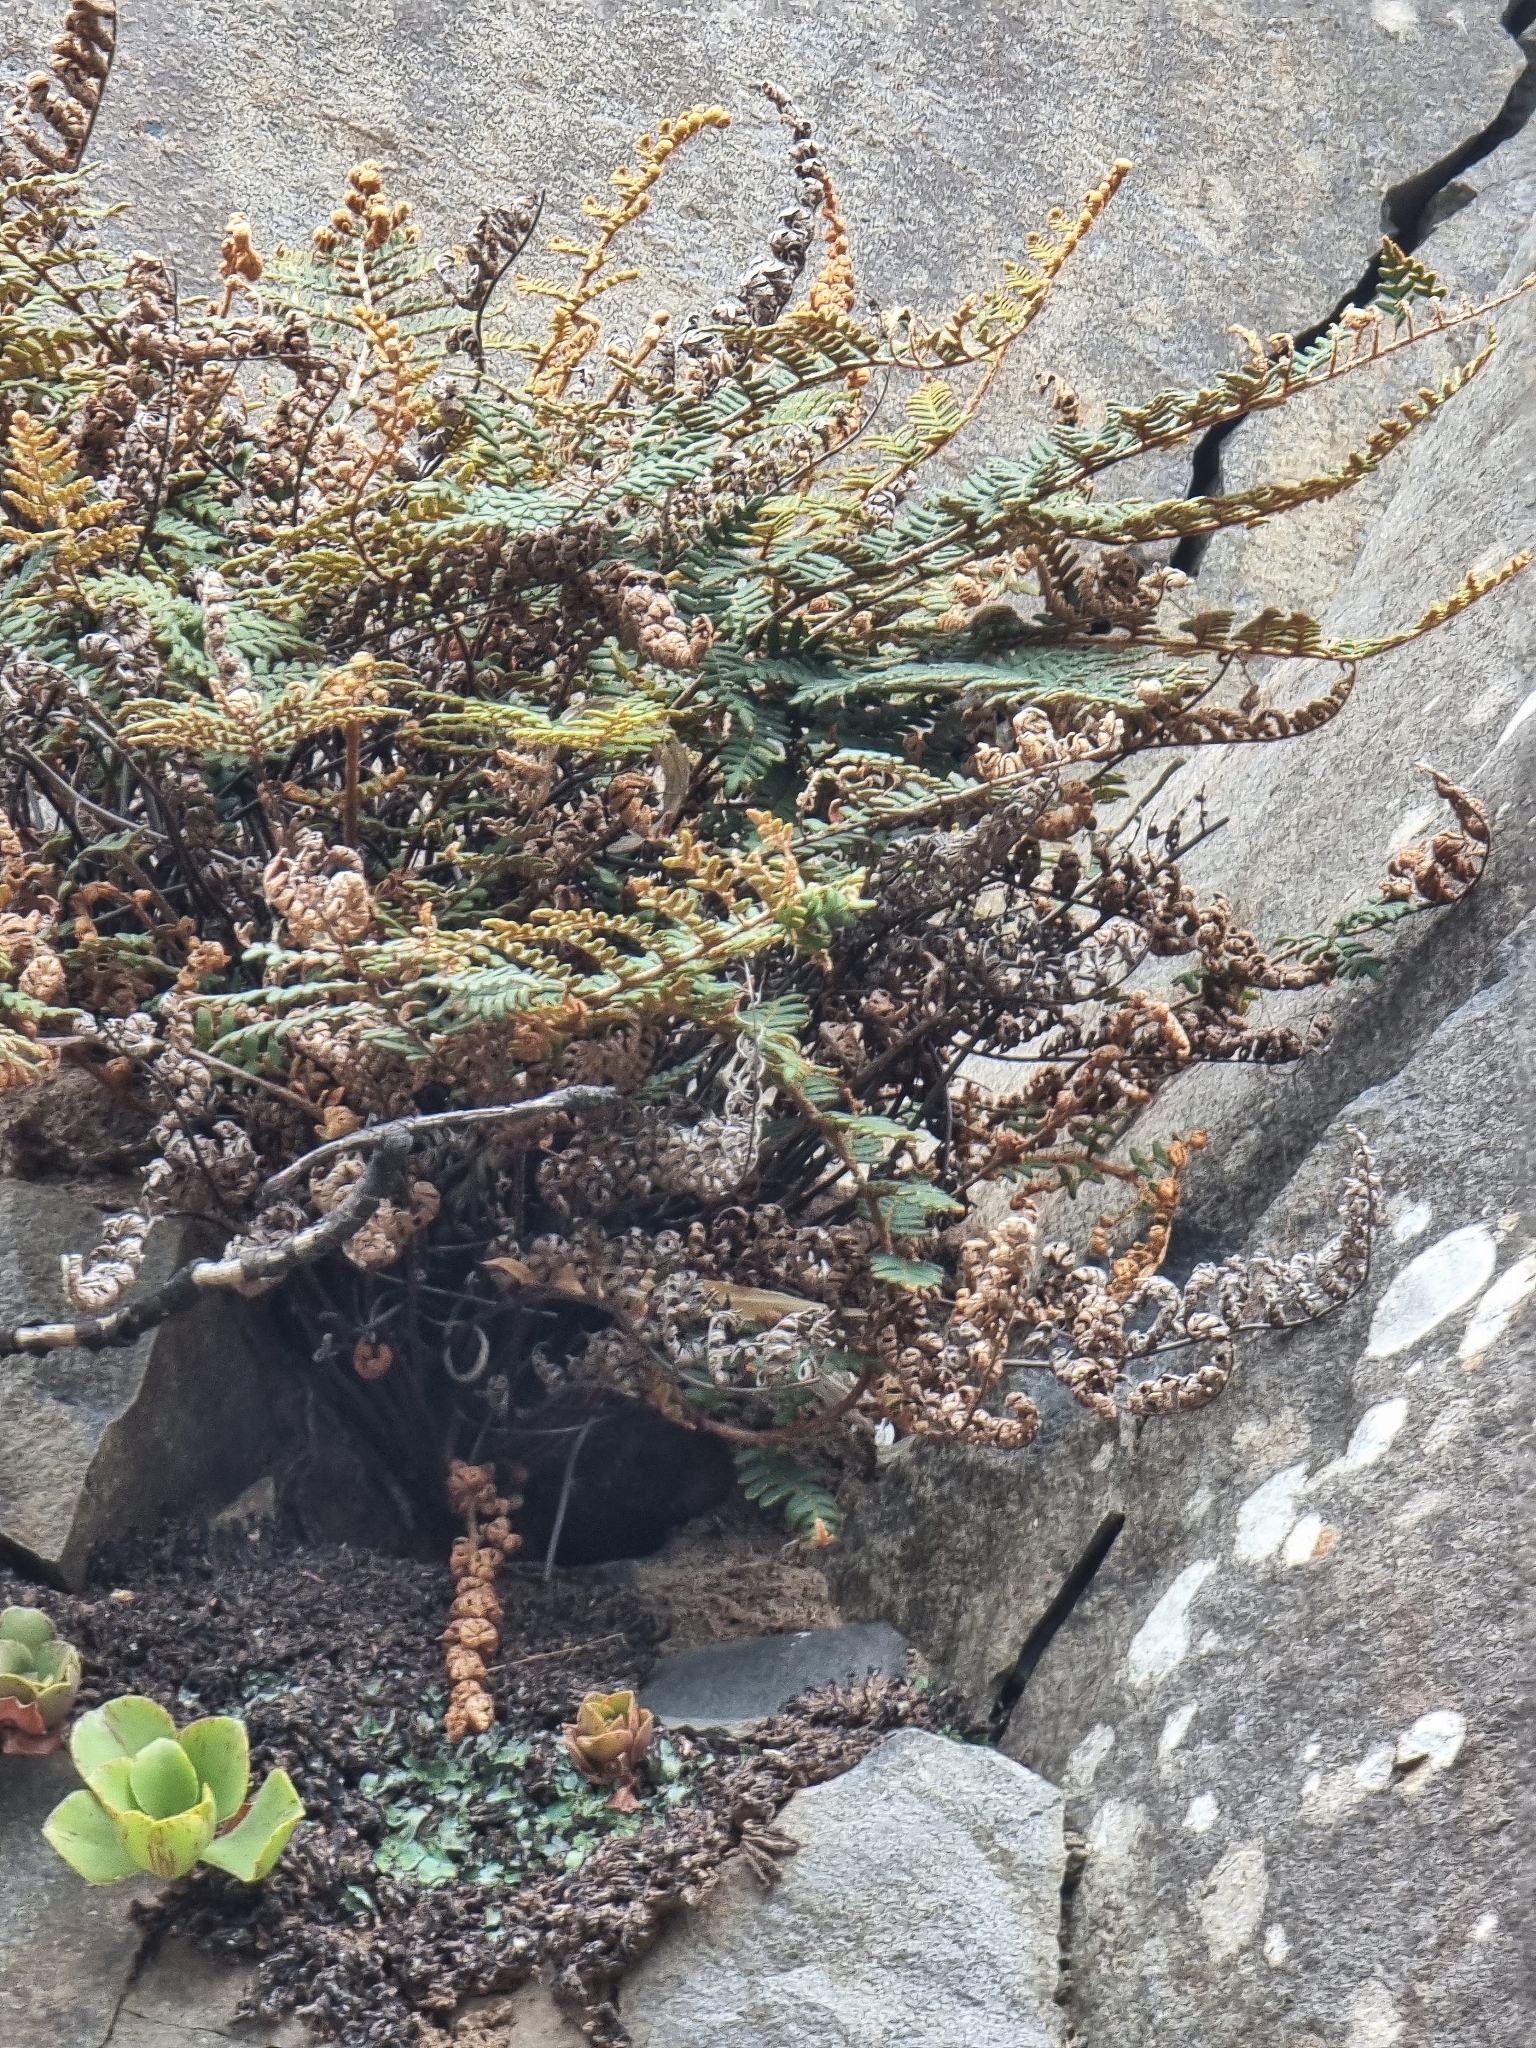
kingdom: Plantae
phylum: Tracheophyta
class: Polypodiopsida
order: Polypodiales
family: Pteridaceae
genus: Paragymnopteris
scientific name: Paragymnopteris marantae
